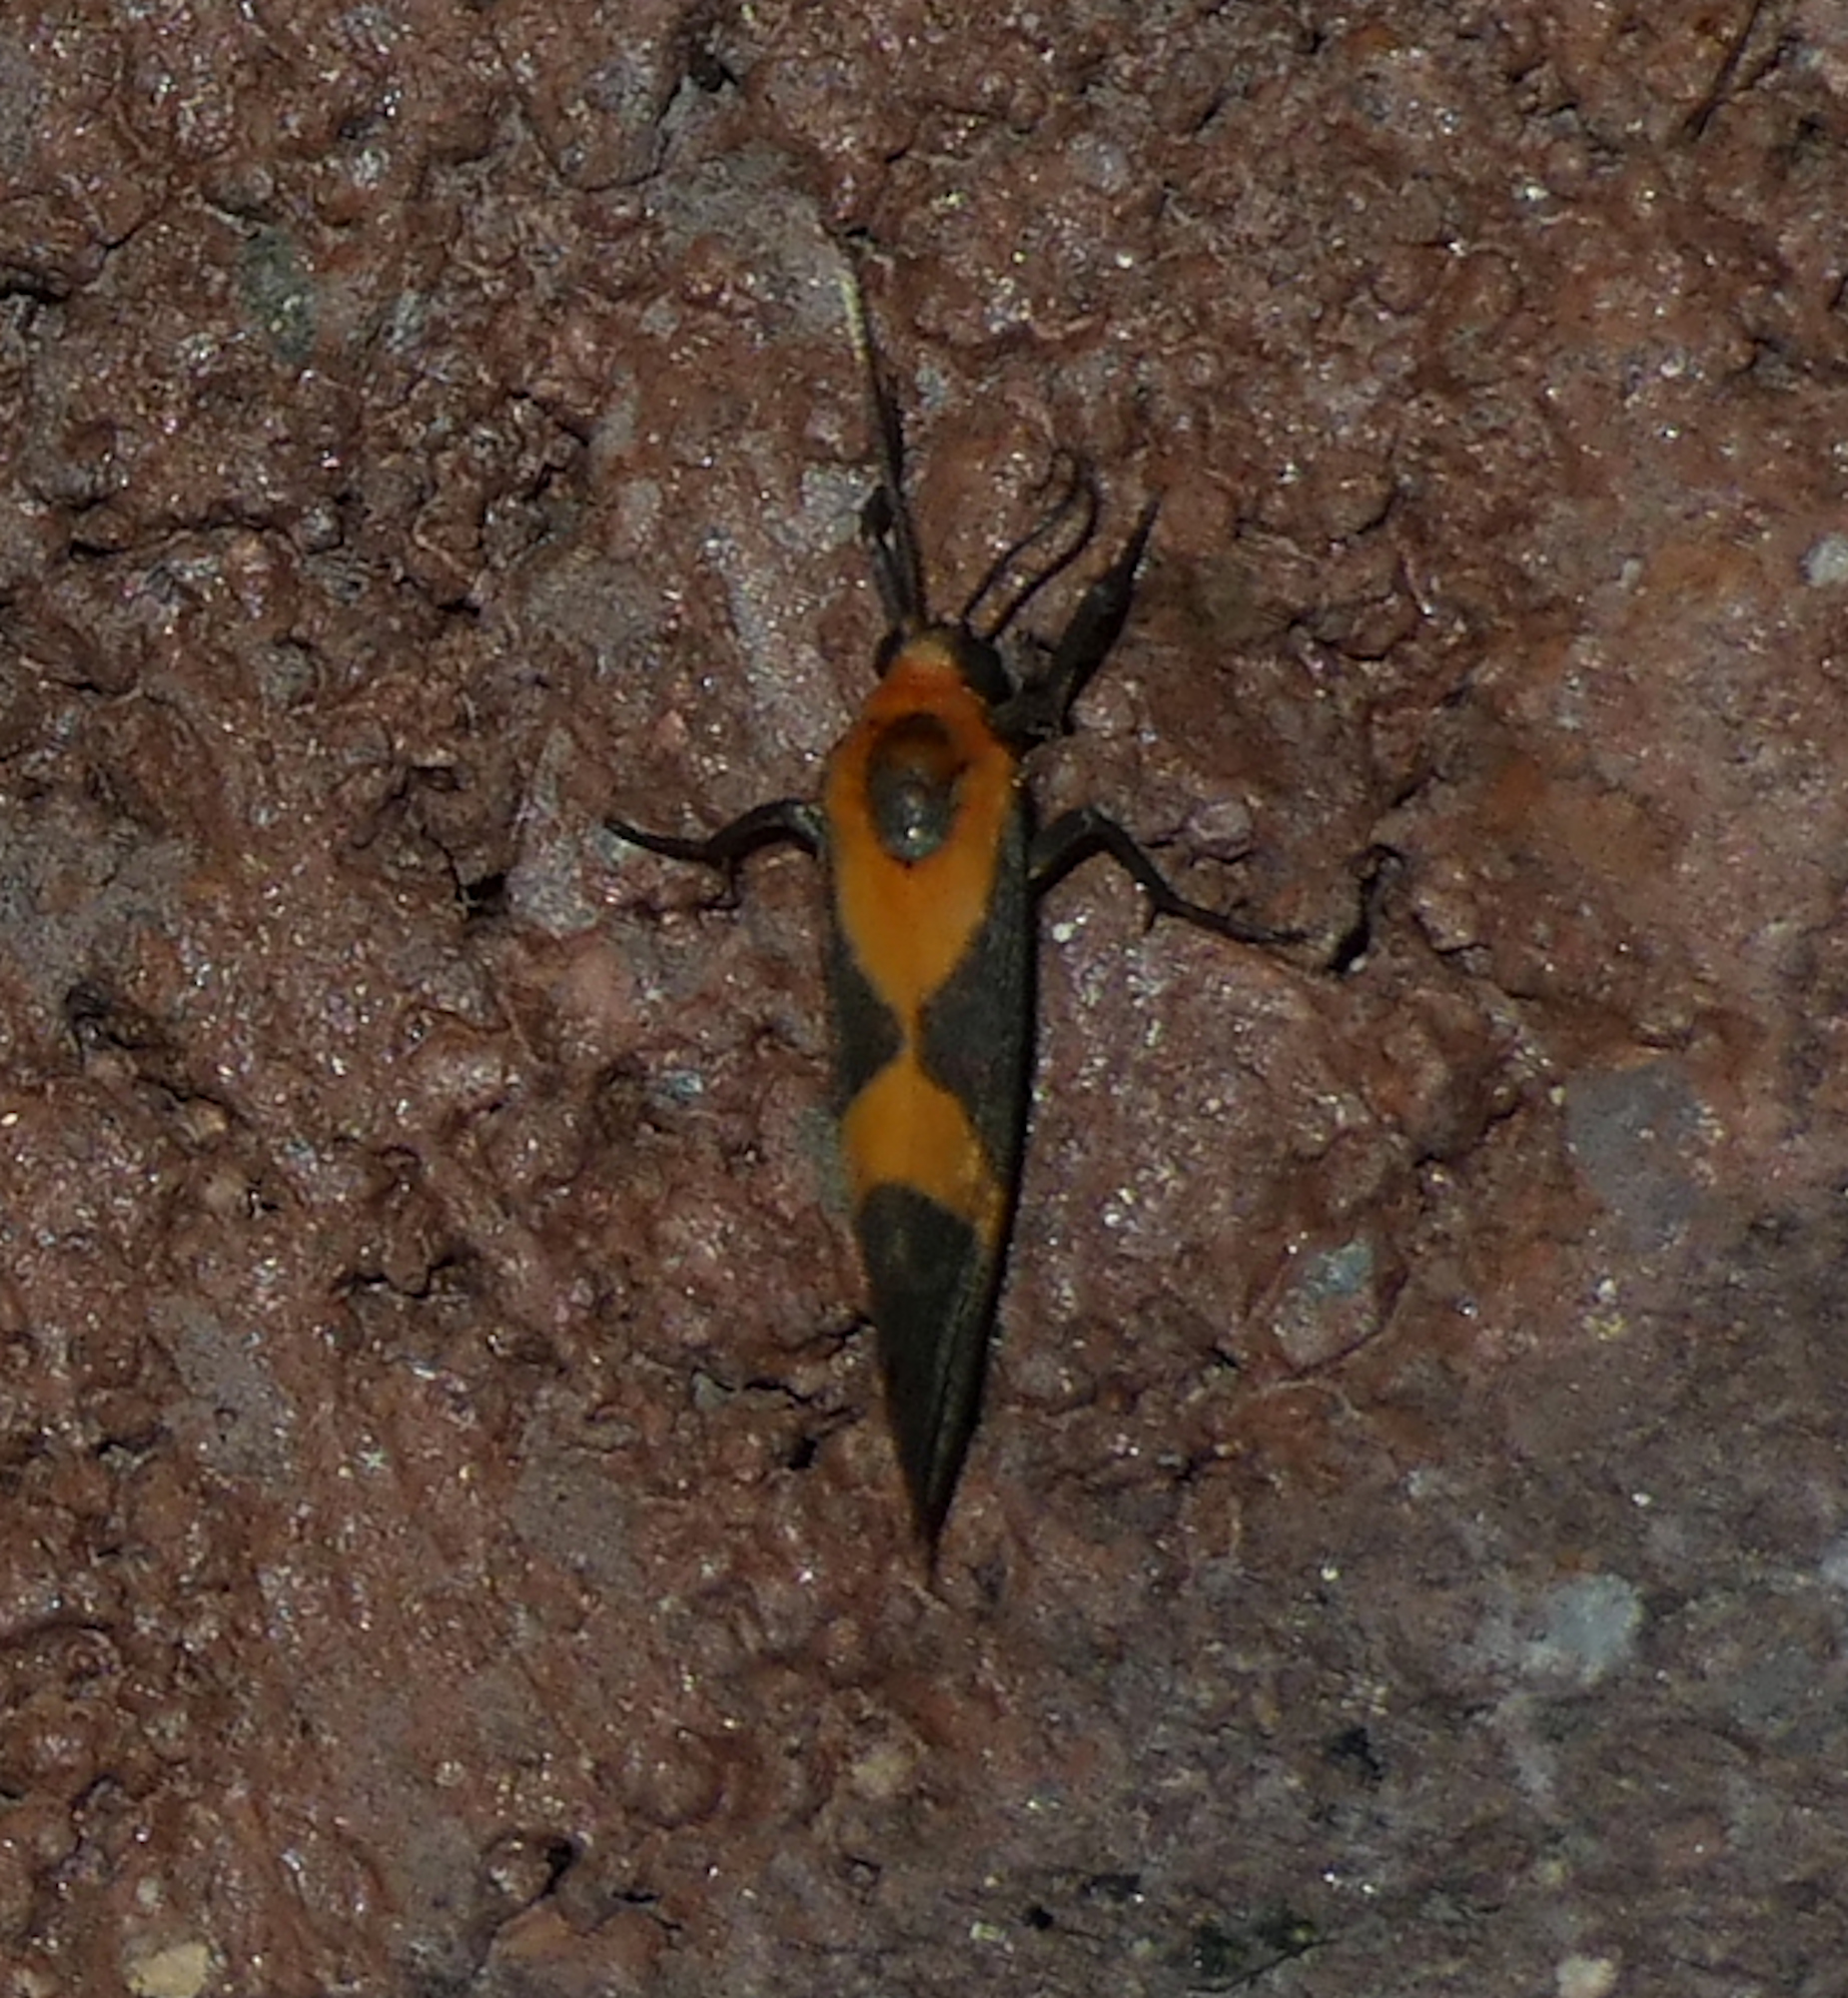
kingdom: Animalia
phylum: Arthropoda
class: Insecta
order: Lepidoptera
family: Erebidae
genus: Cisthene
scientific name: Cisthene tenuifascia
